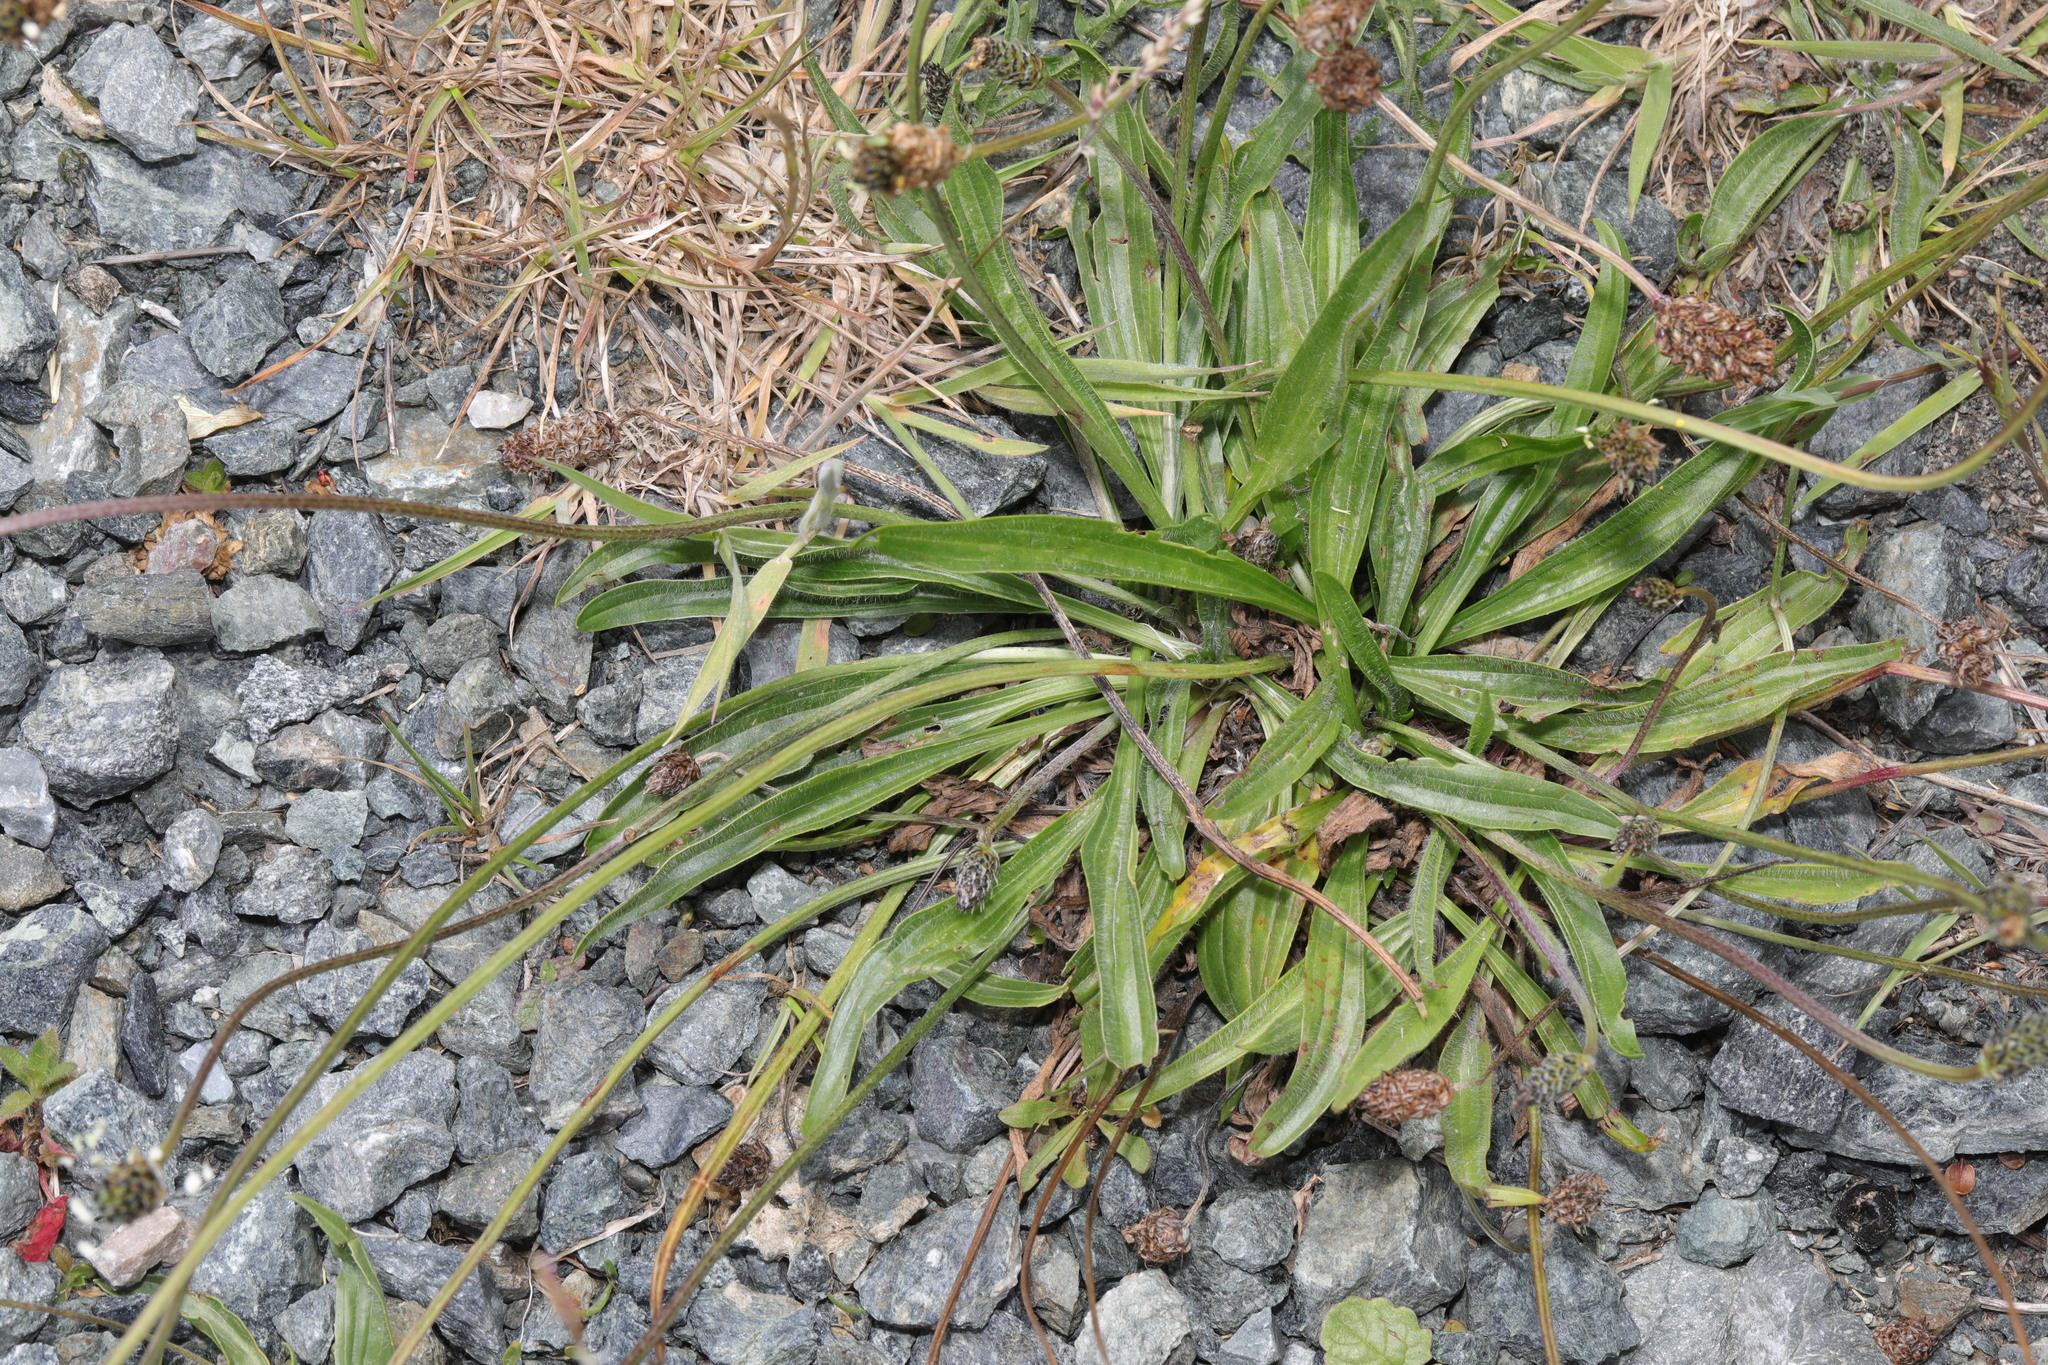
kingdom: Plantae
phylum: Tracheophyta
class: Magnoliopsida
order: Lamiales
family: Plantaginaceae
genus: Plantago
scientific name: Plantago lanceolata
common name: Ribwort plantain
